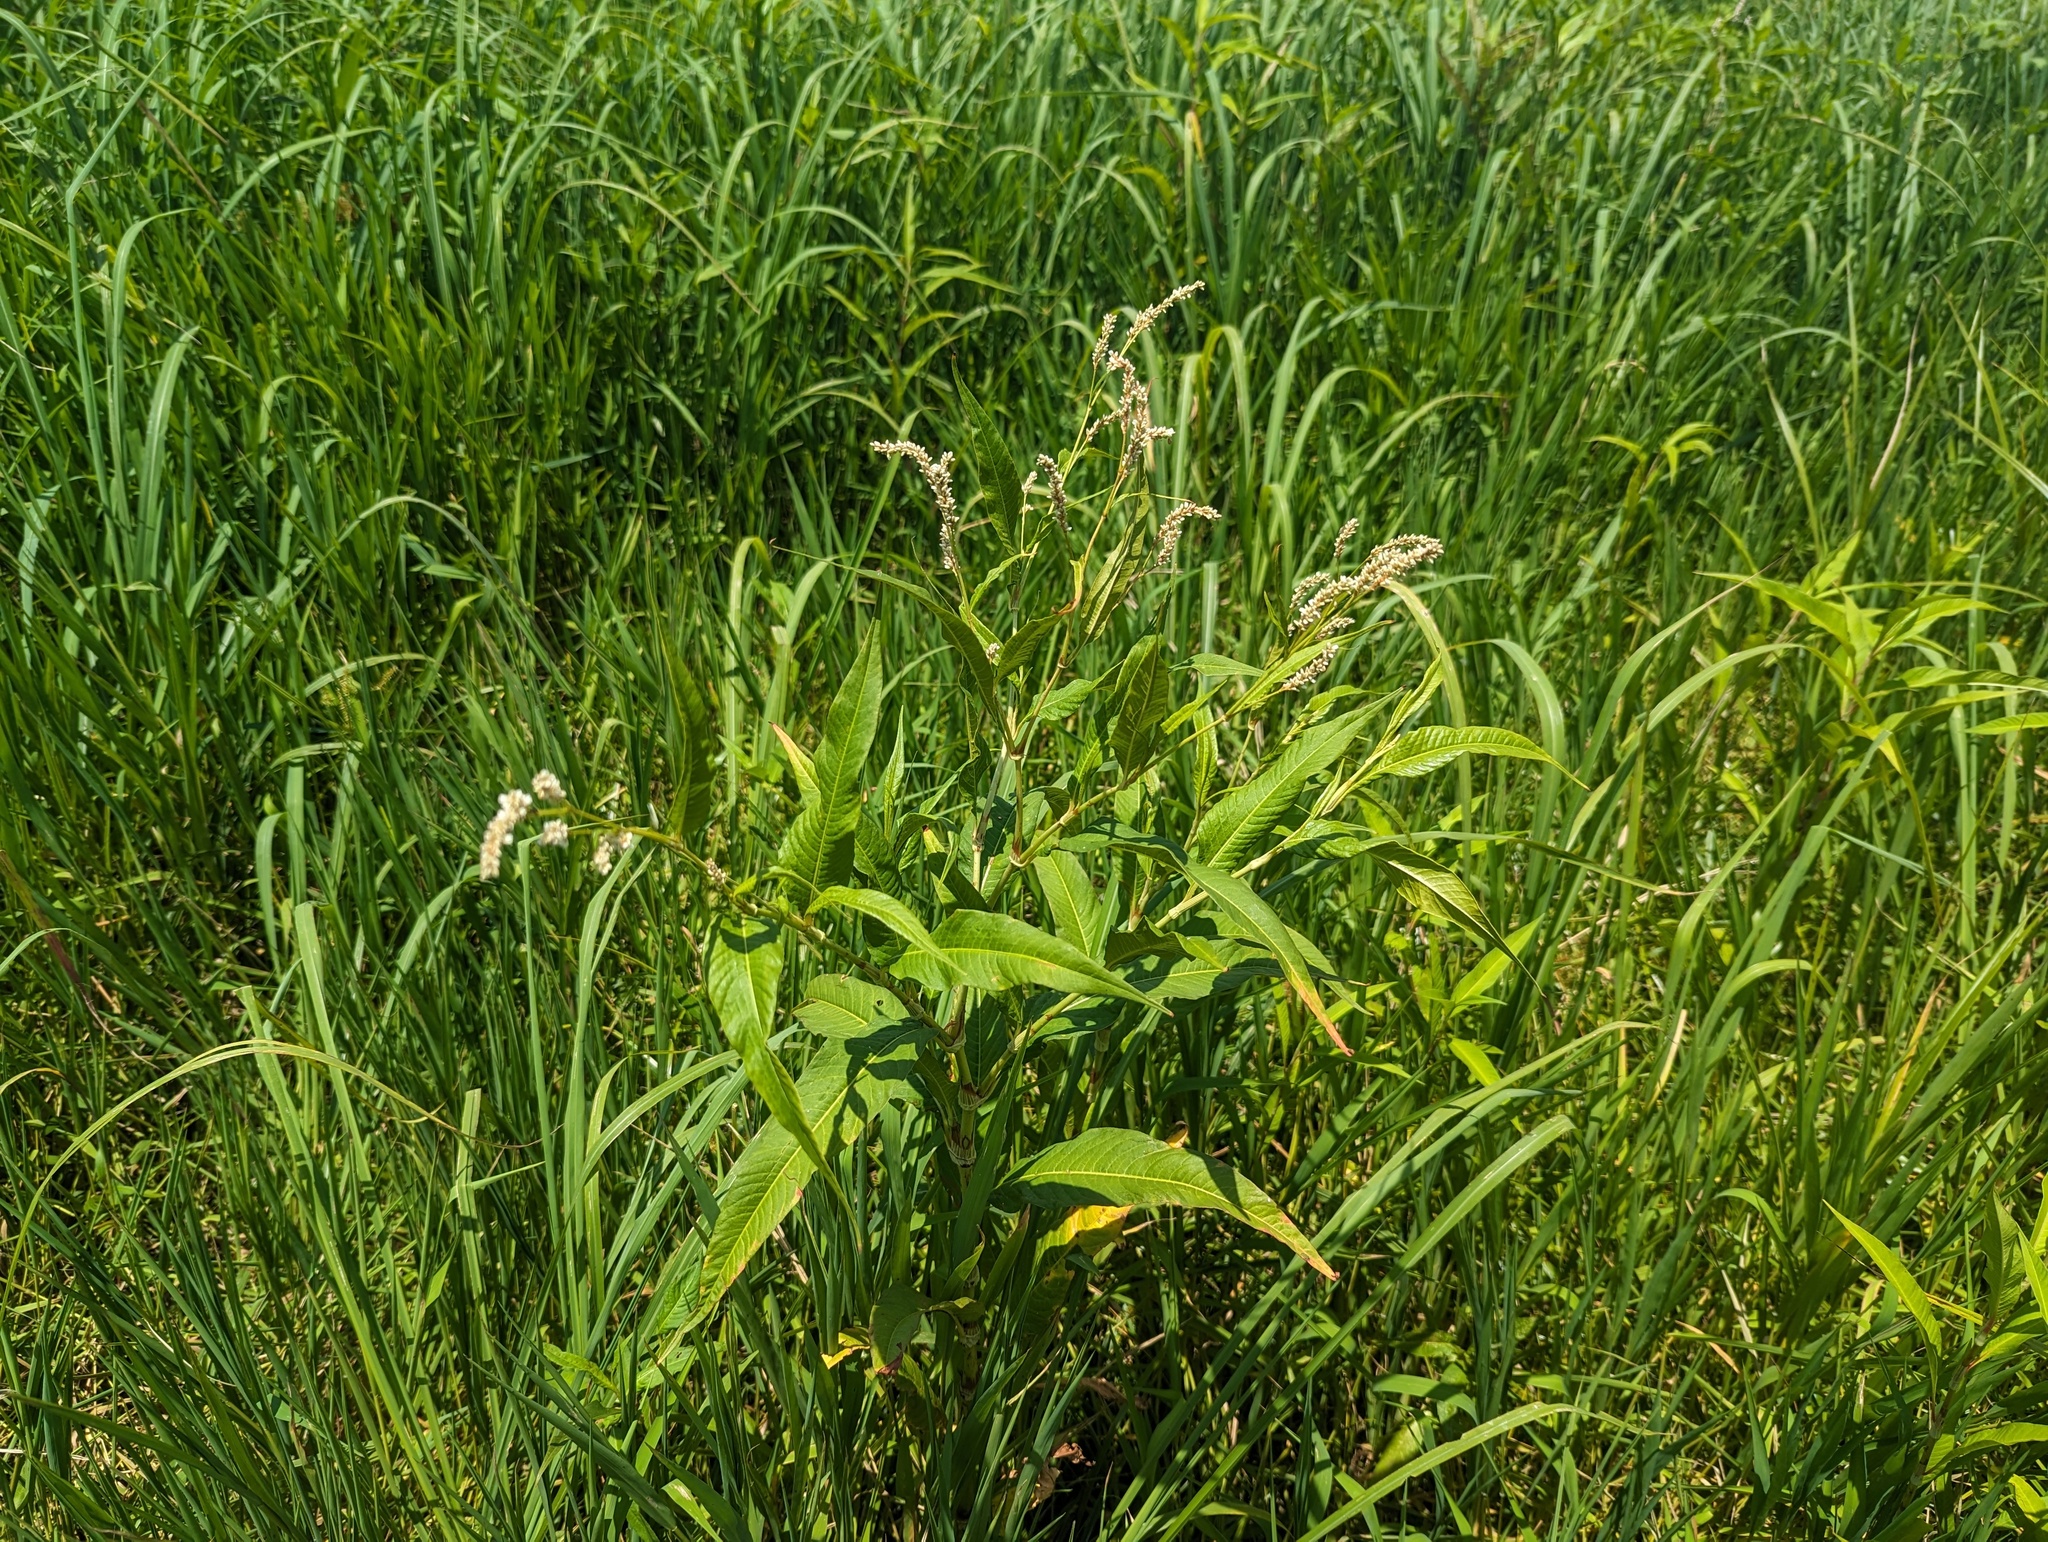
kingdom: Plantae
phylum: Tracheophyta
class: Magnoliopsida
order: Caryophyllales
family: Polygonaceae
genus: Persicaria
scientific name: Persicaria lapathifolia
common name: Curlytop knotweed
